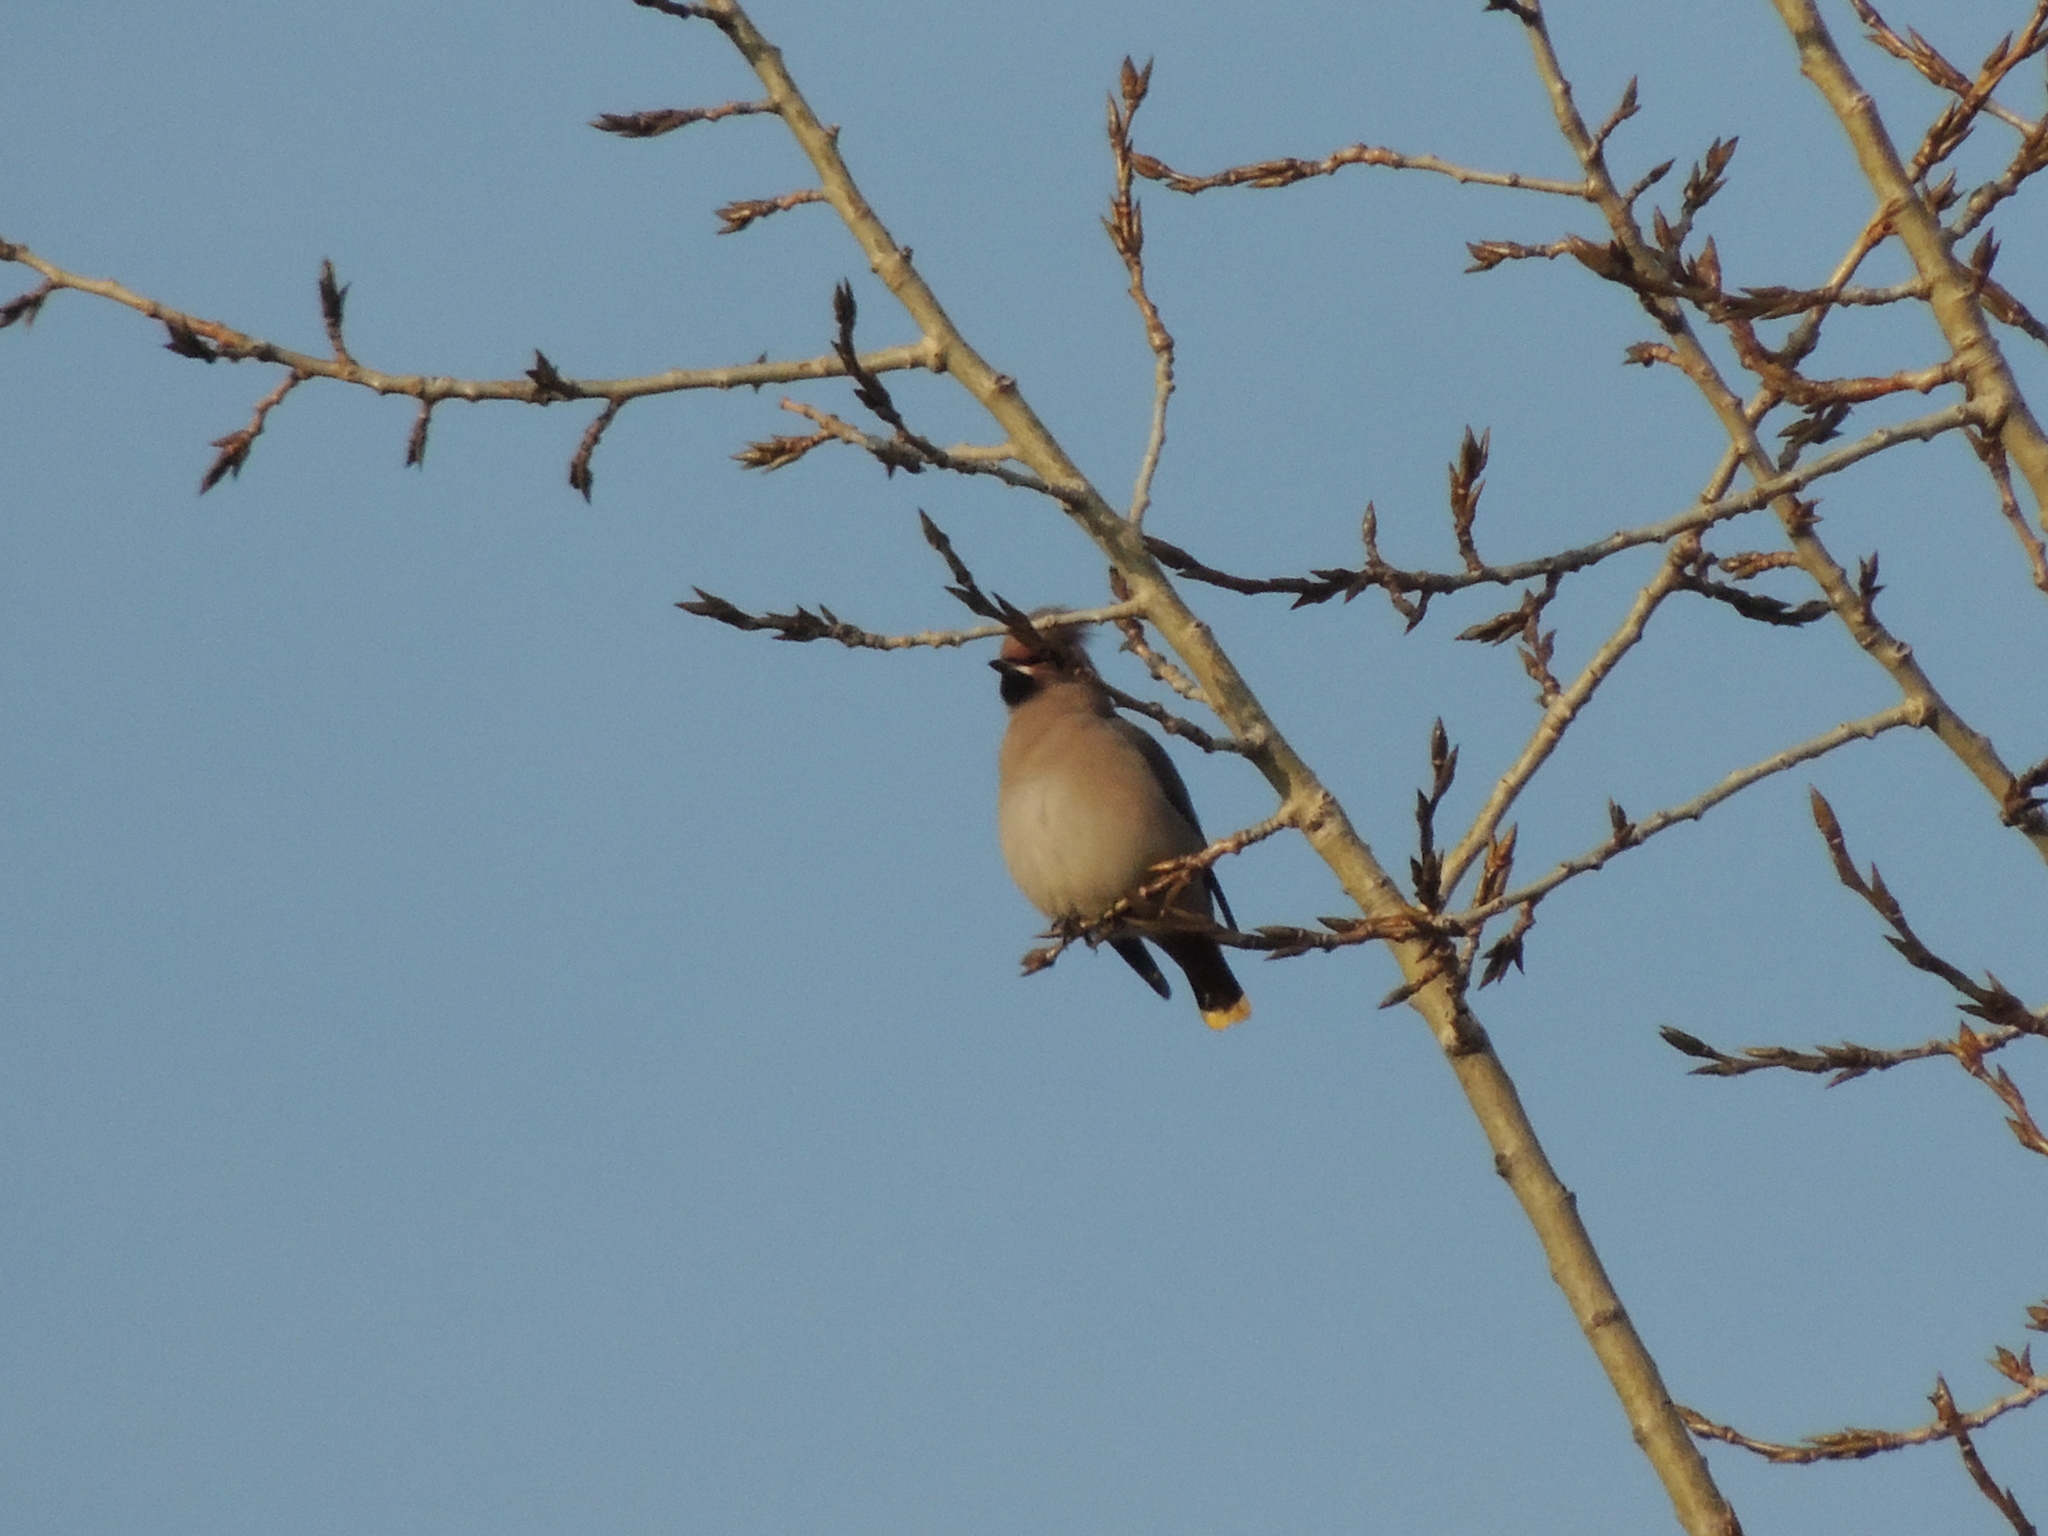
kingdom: Animalia
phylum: Chordata
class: Aves
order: Passeriformes
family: Bombycillidae
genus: Bombycilla
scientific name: Bombycilla garrulus
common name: Bohemian waxwing
